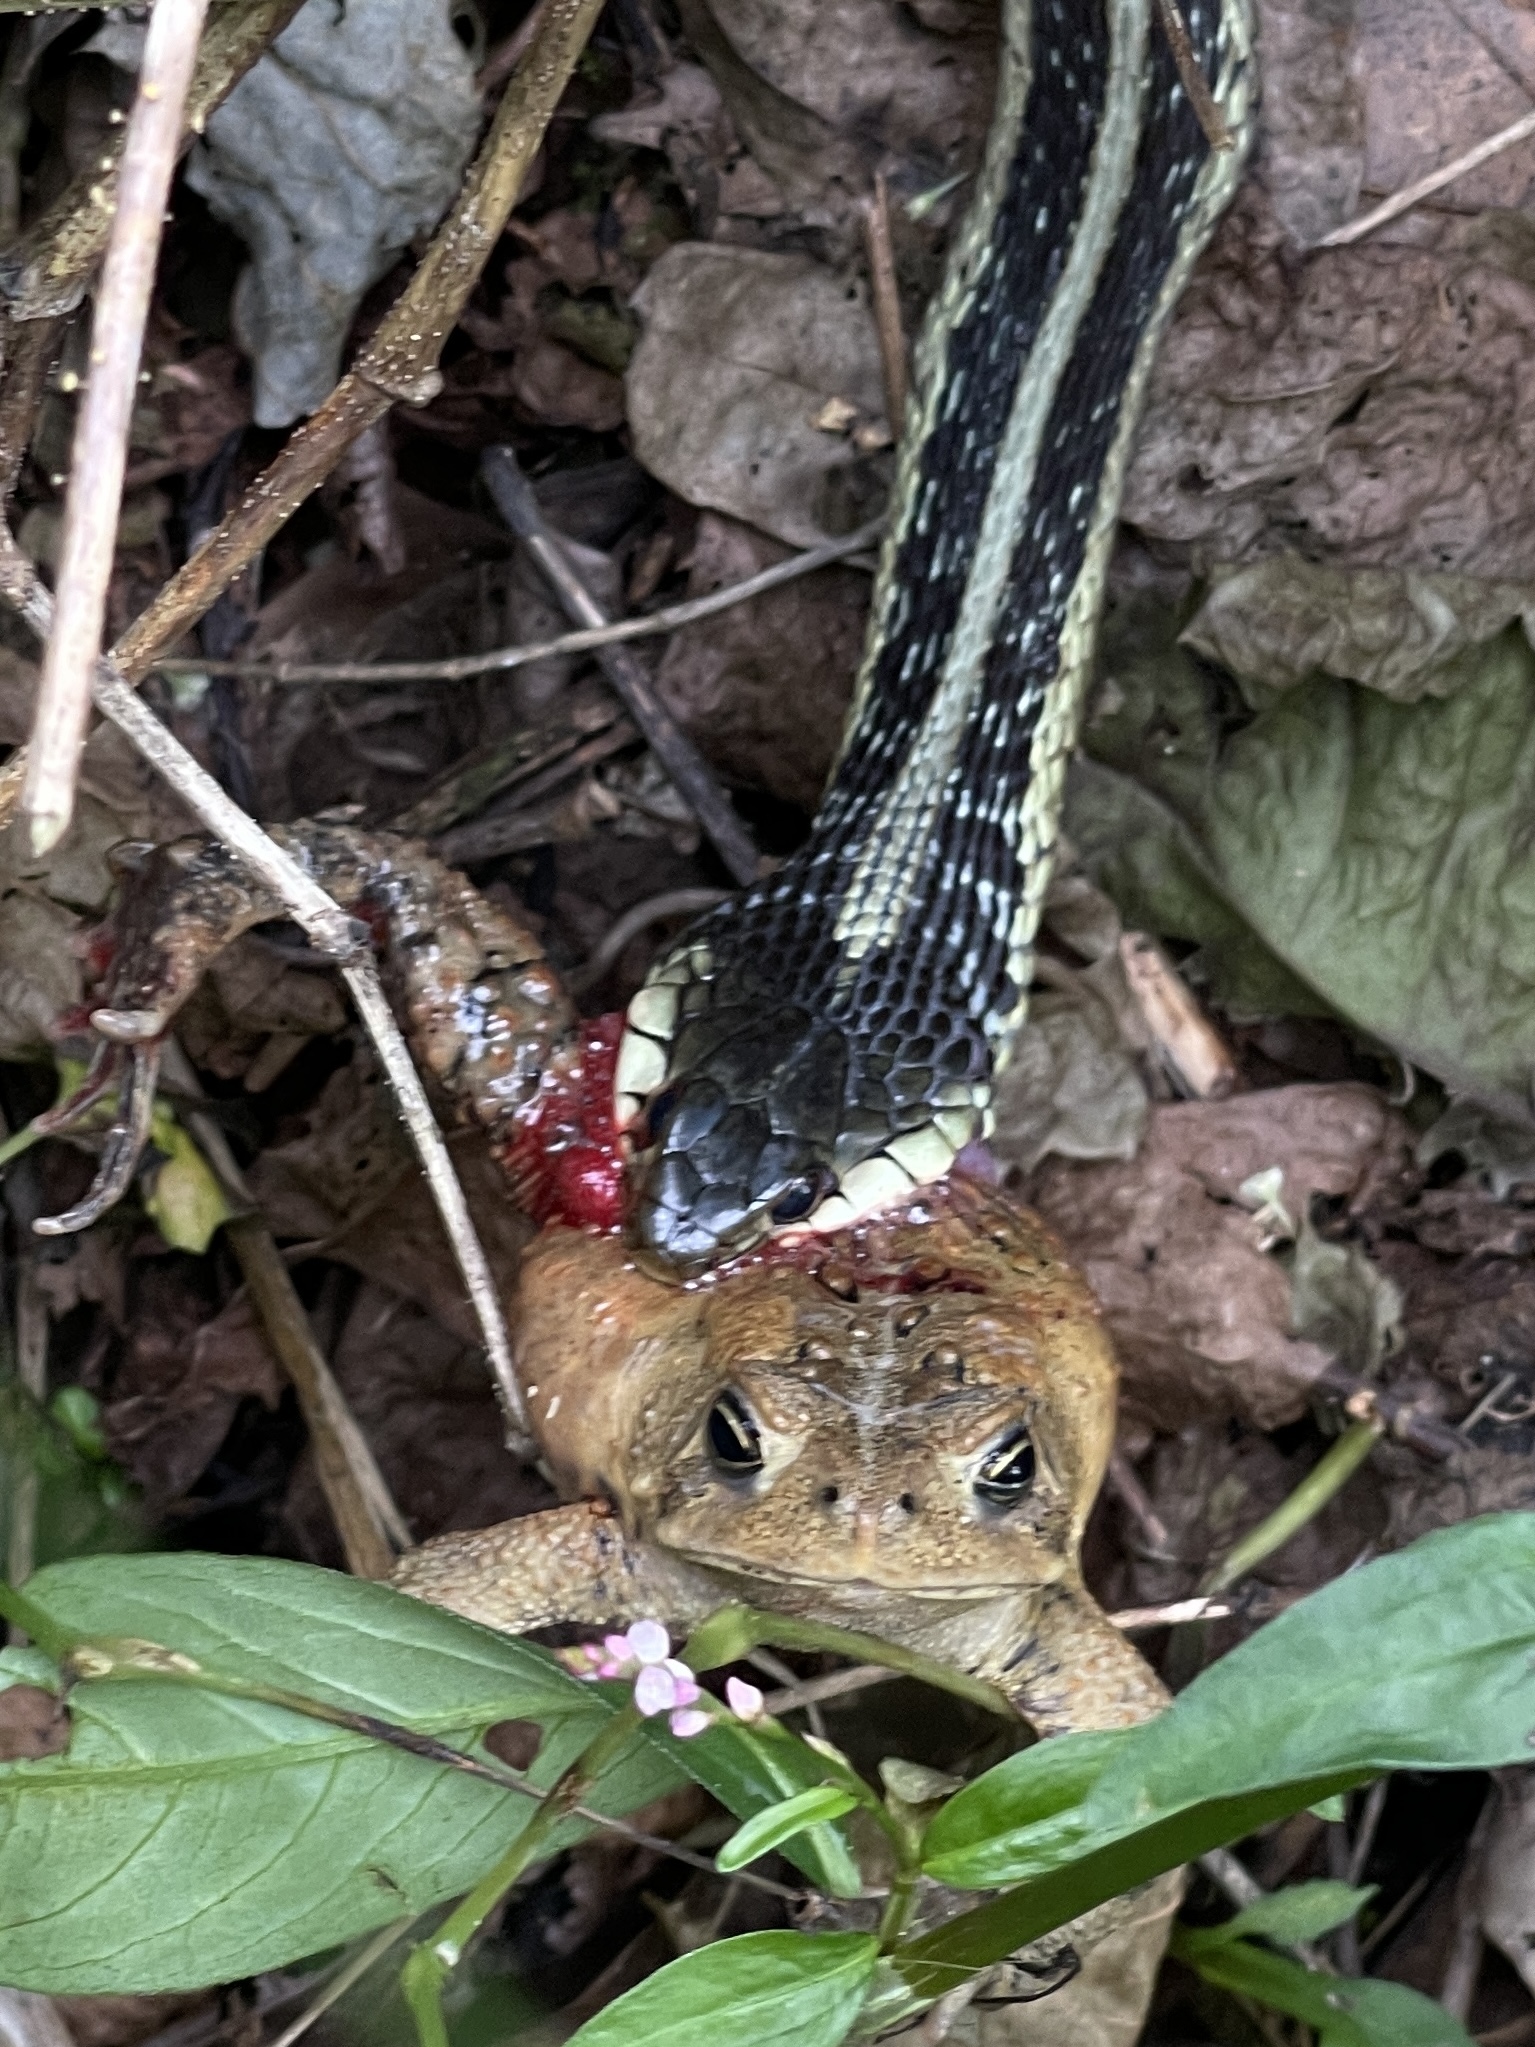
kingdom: Animalia
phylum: Chordata
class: Amphibia
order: Anura
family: Bufonidae
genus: Anaxyrus
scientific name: Anaxyrus americanus
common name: American toad
